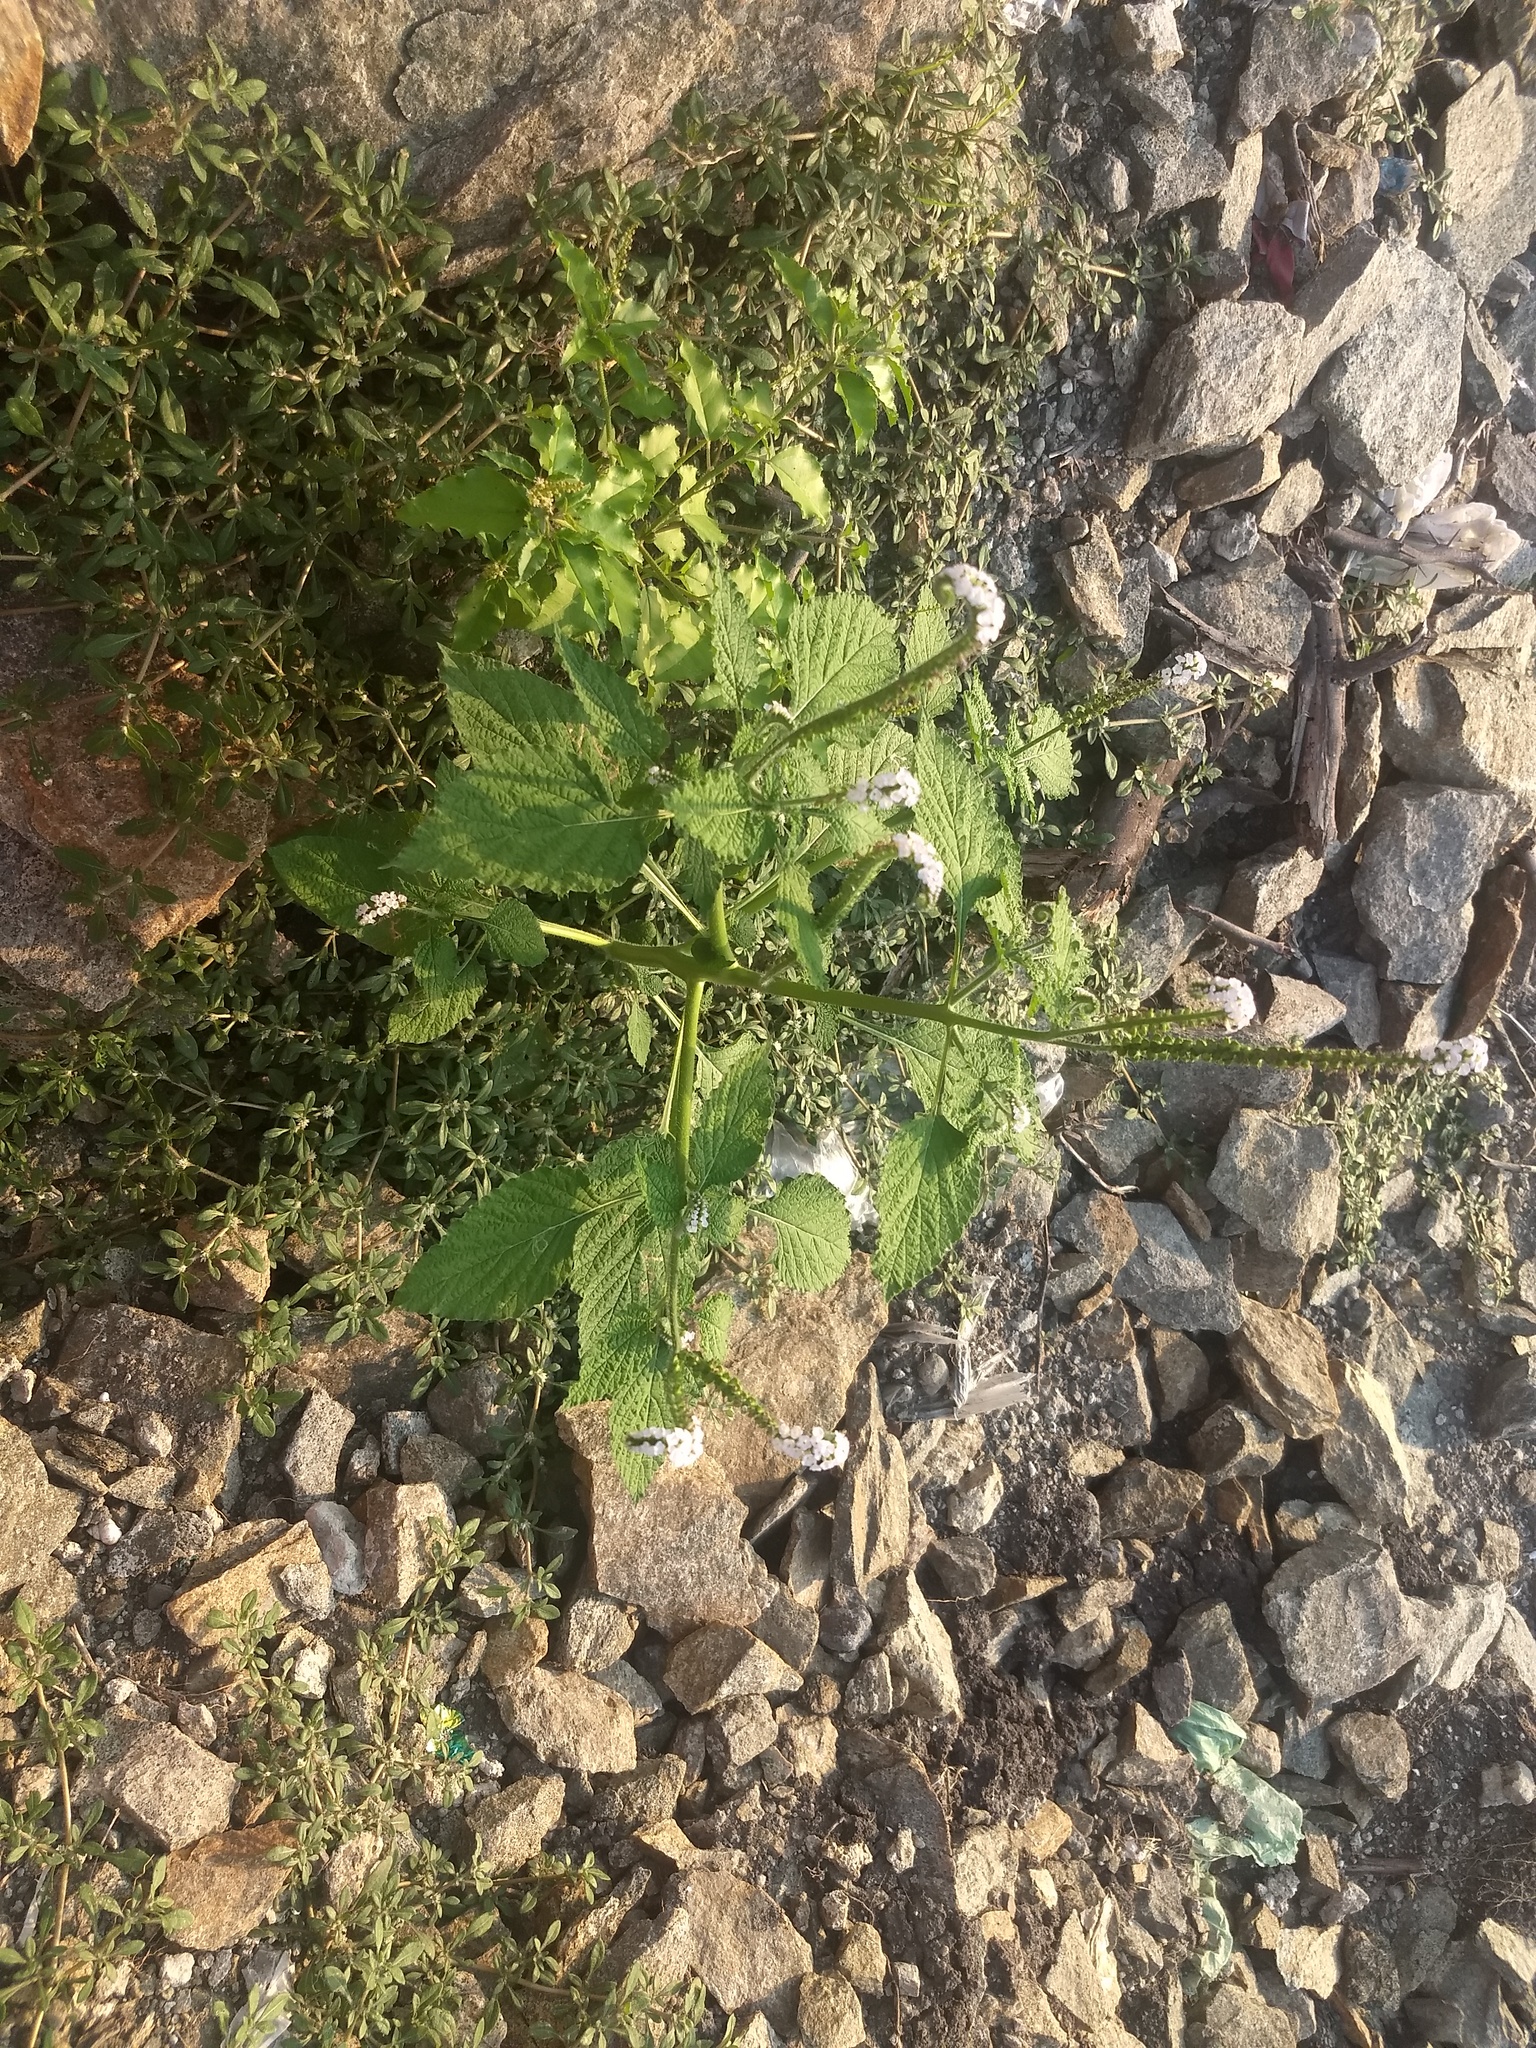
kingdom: Plantae
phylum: Tracheophyta
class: Magnoliopsida
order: Boraginales
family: Heliotropiaceae
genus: Heliotropium
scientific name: Heliotropium indicum
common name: Indian heliotrope
